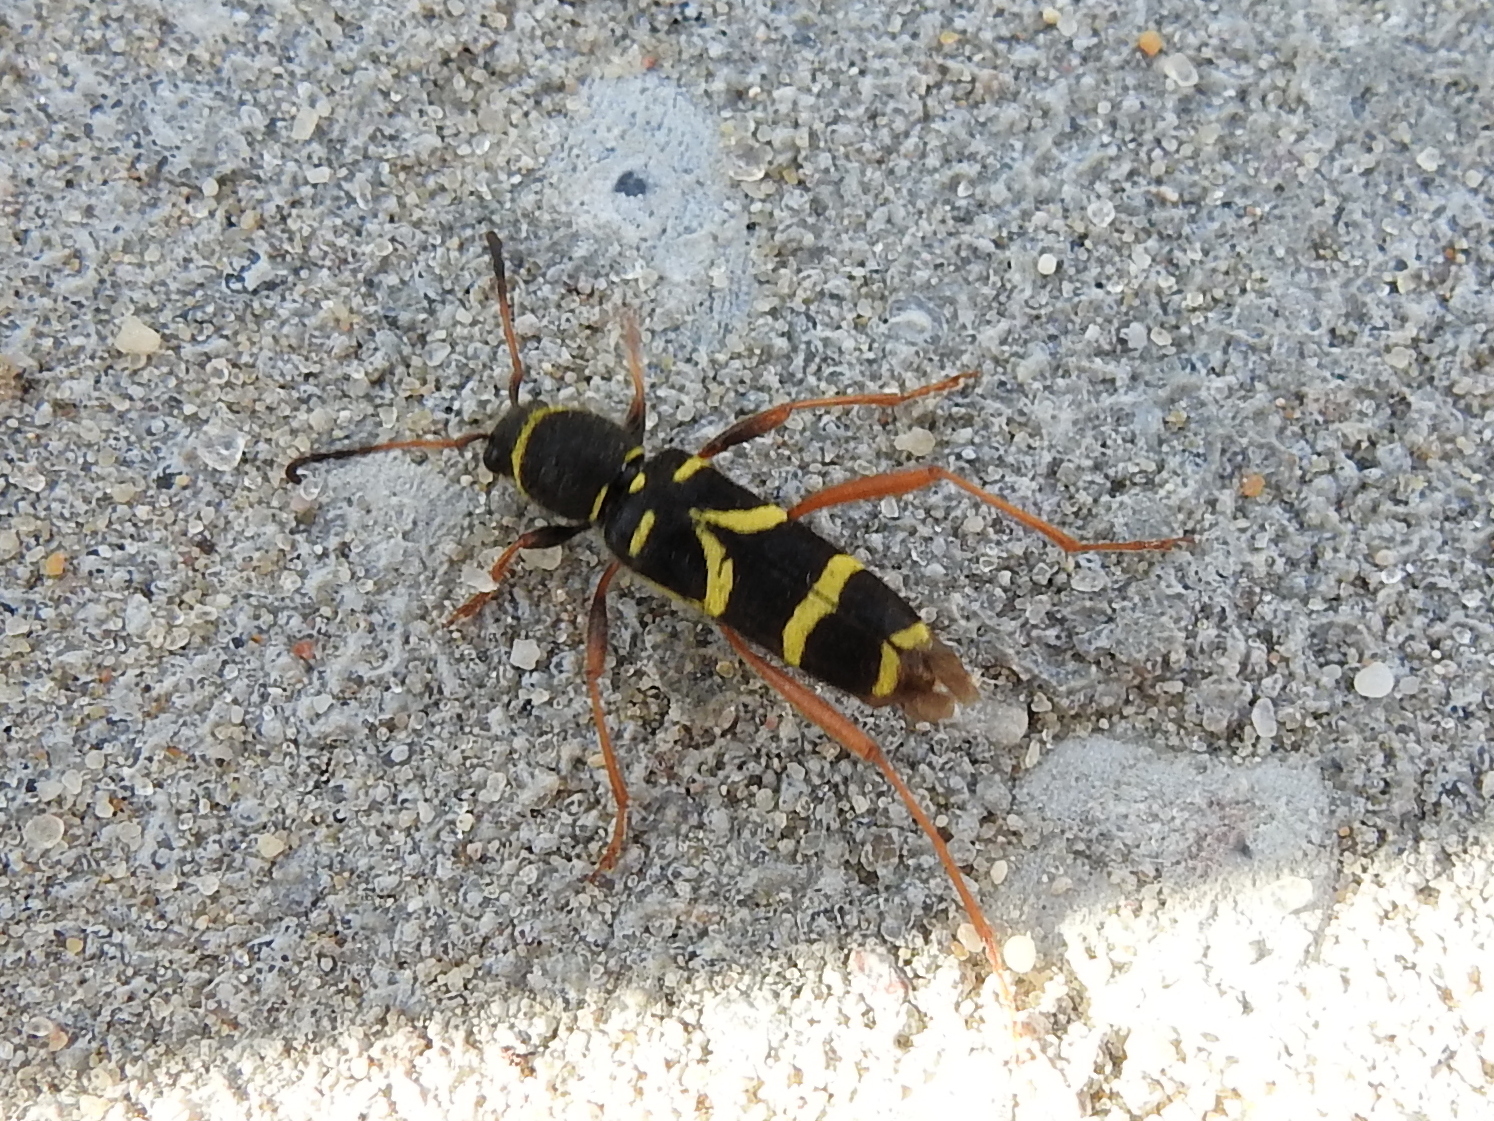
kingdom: Animalia
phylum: Arthropoda
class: Insecta
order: Coleoptera
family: Cerambycidae
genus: Clytus
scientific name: Clytus arietis
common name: Wasp beetle
